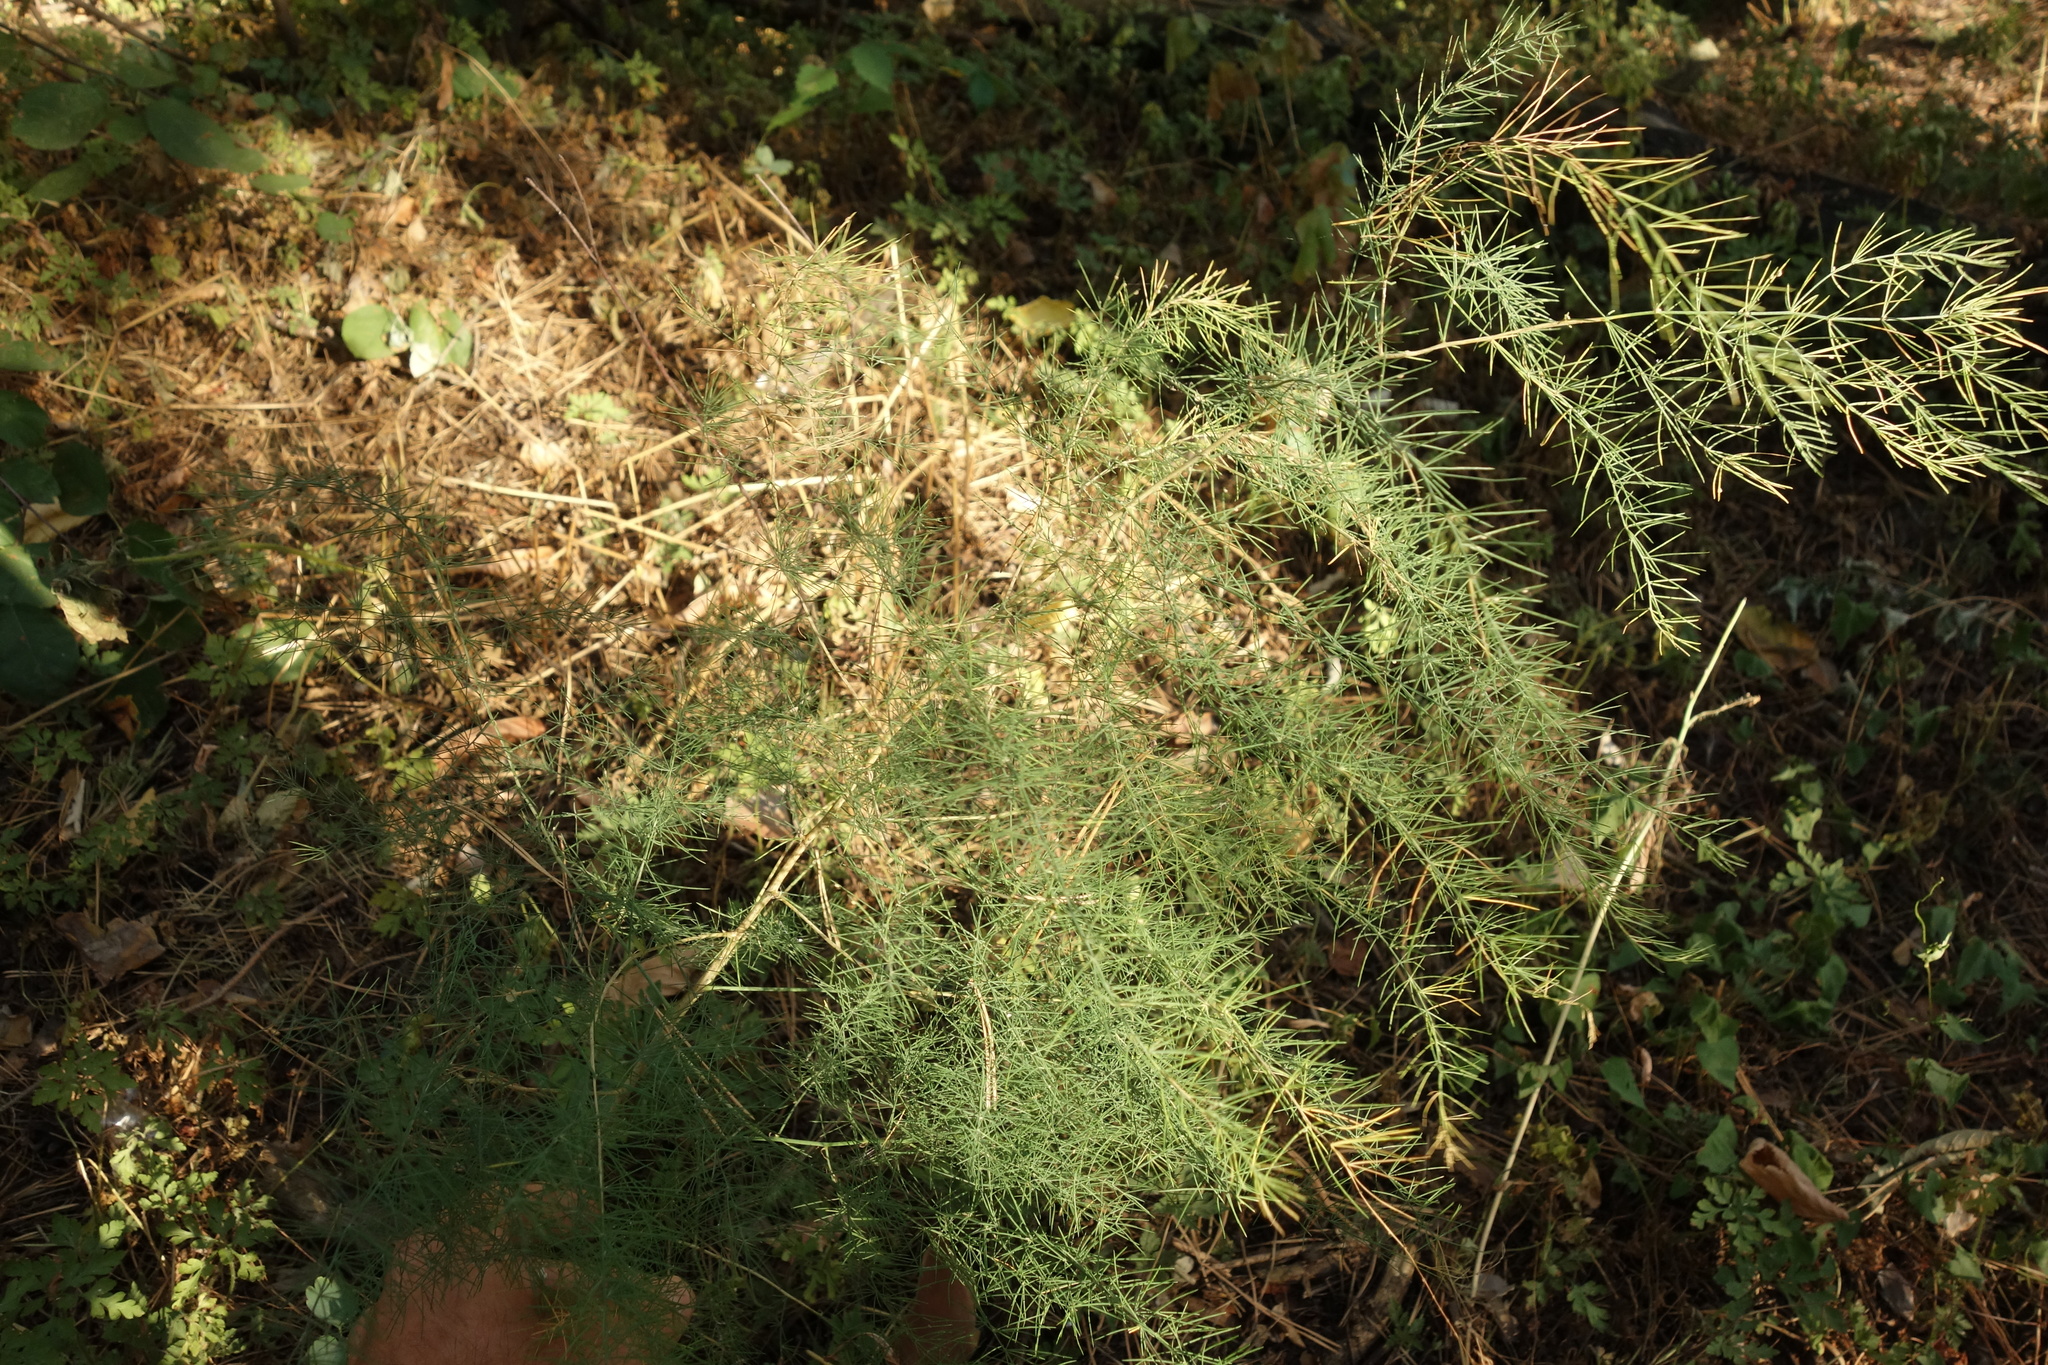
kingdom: Plantae
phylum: Tracheophyta
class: Liliopsida
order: Asparagales
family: Asparagaceae
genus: Asparagus
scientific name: Asparagus officinalis
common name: Garden asparagus
